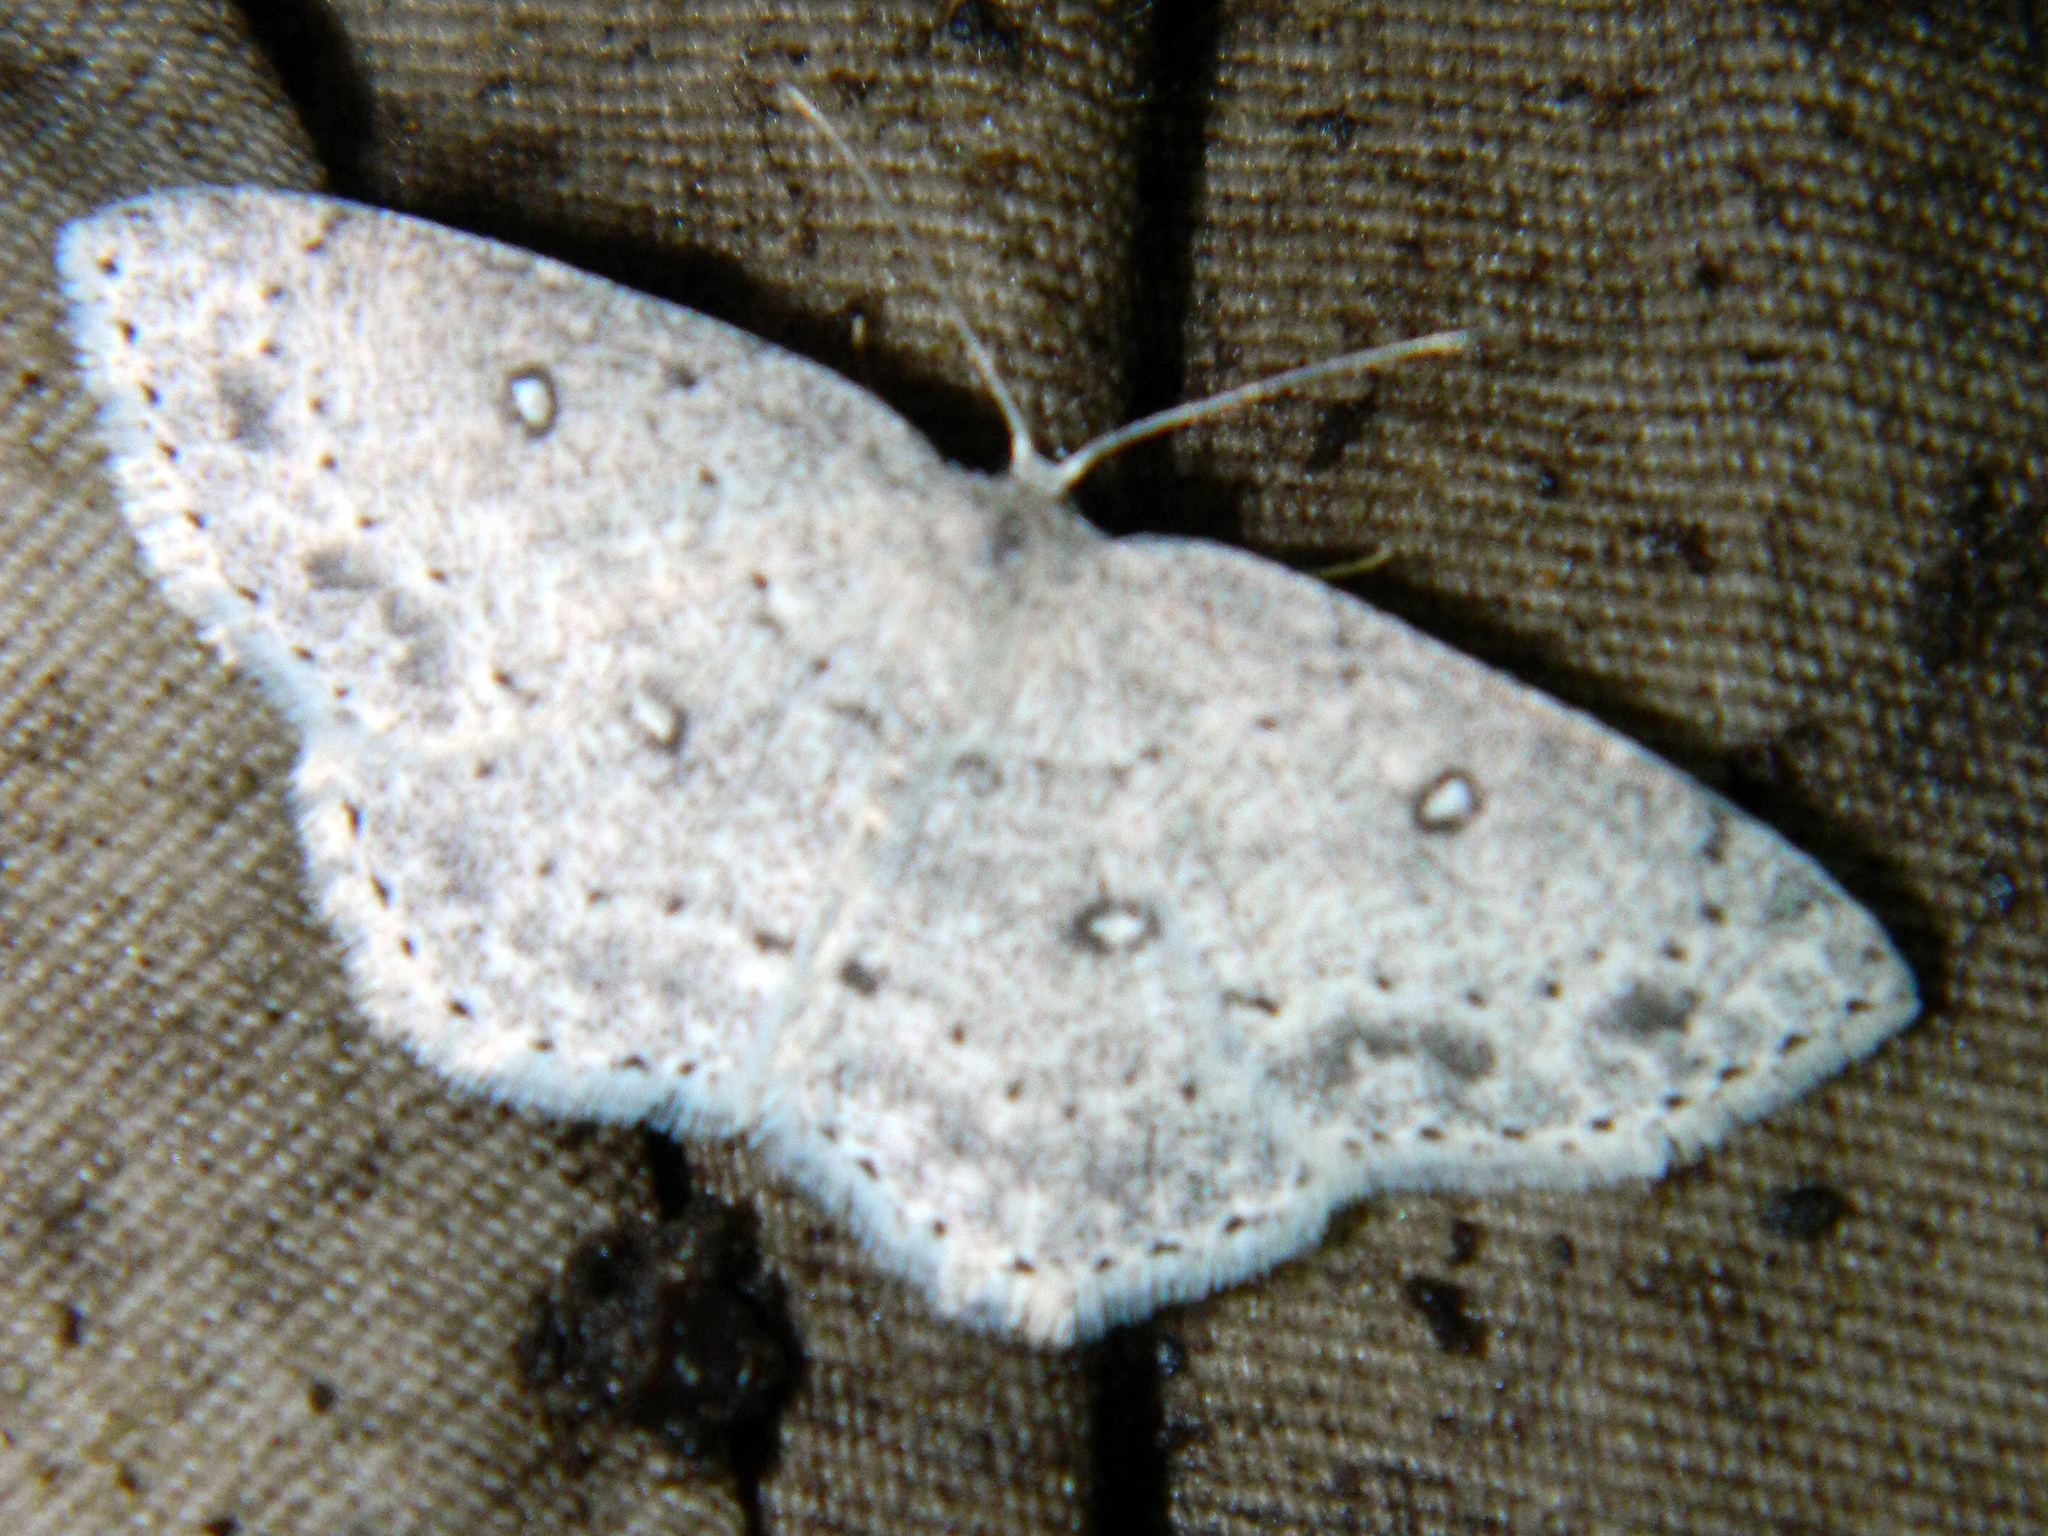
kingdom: Animalia
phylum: Arthropoda
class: Insecta
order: Lepidoptera
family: Geometridae
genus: Cyclophora
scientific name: Cyclophora pendulinaria
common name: Sweet fern geometer
